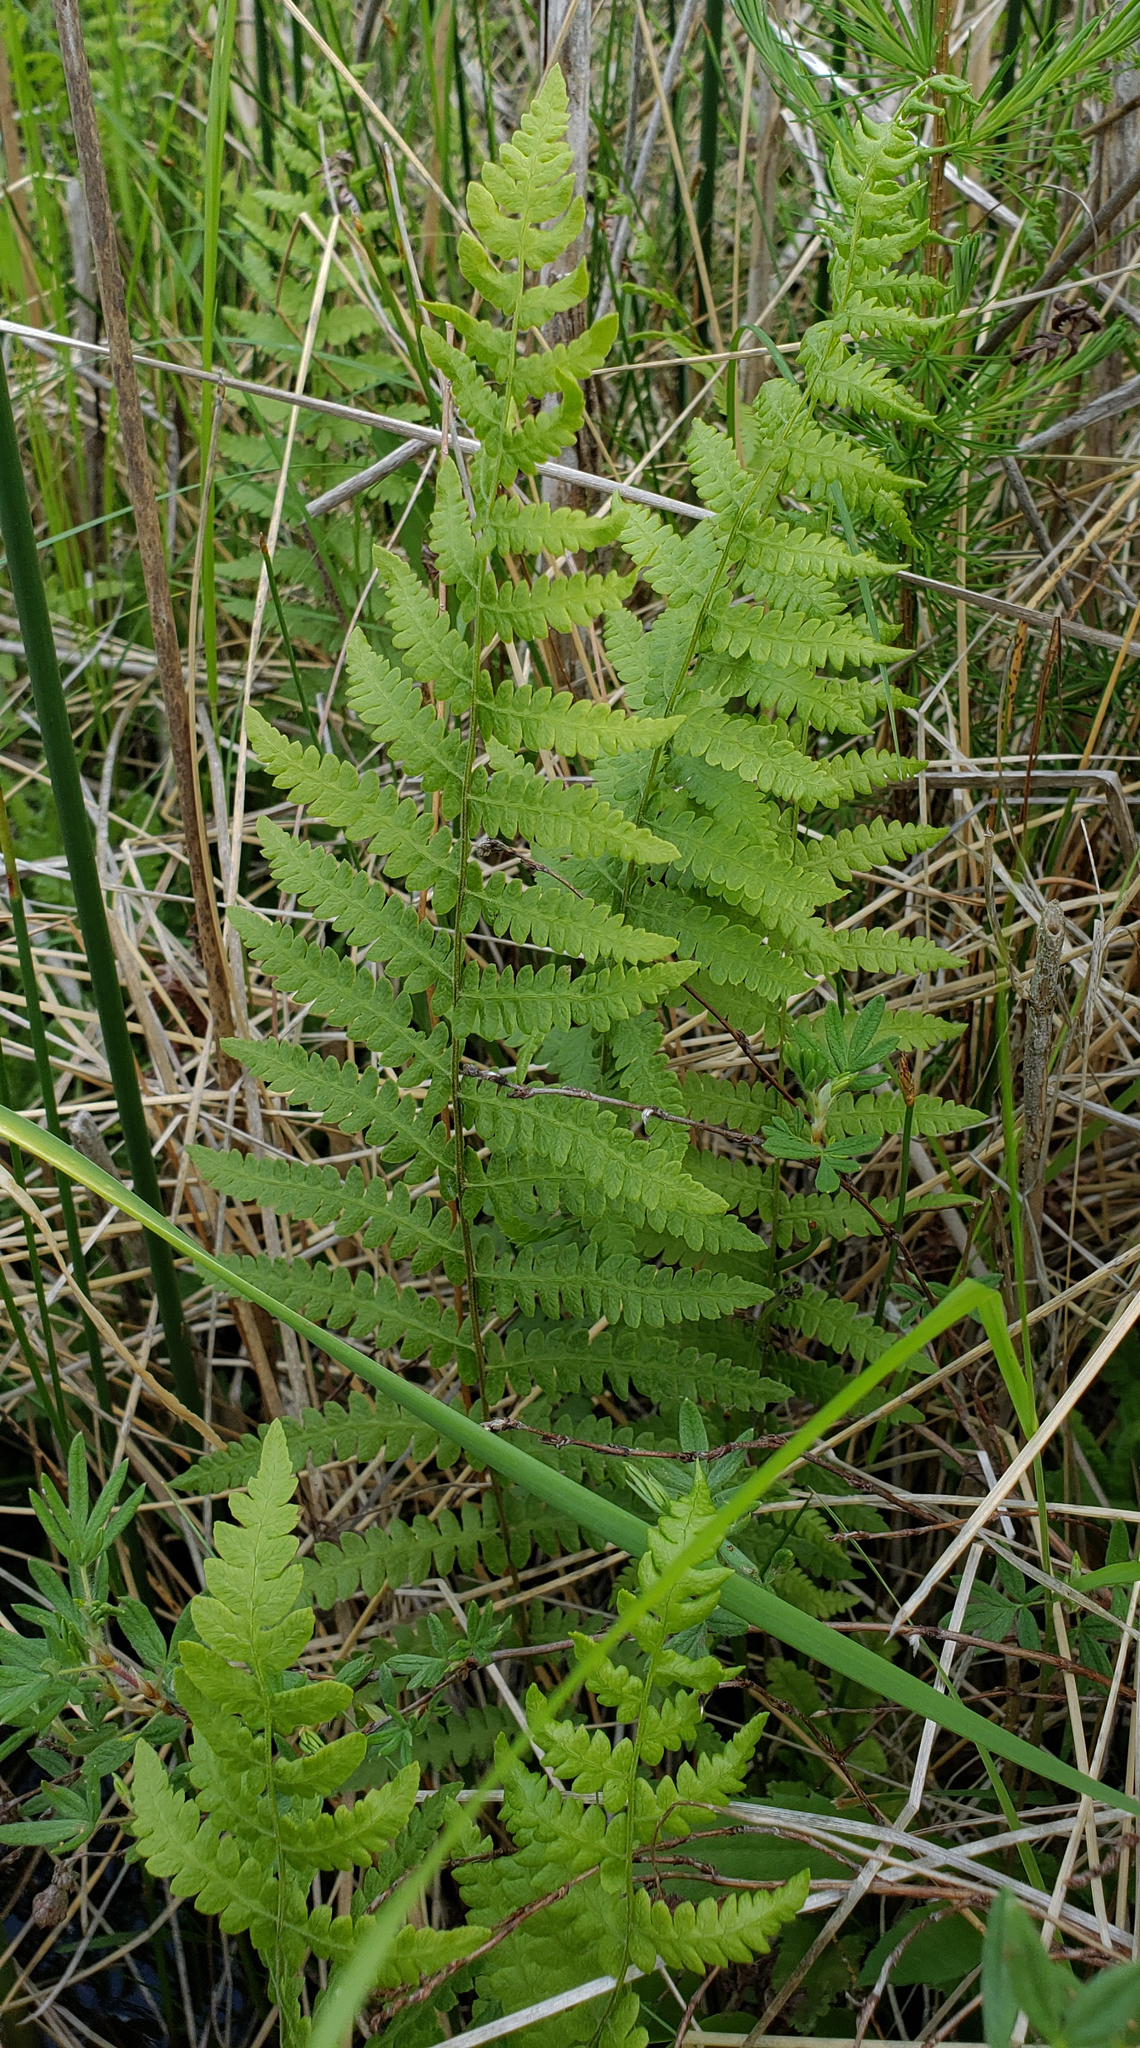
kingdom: Plantae
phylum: Tracheophyta
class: Polypodiopsida
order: Polypodiales
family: Thelypteridaceae
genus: Thelypteris
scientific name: Thelypteris palustris
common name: Marsh fern
